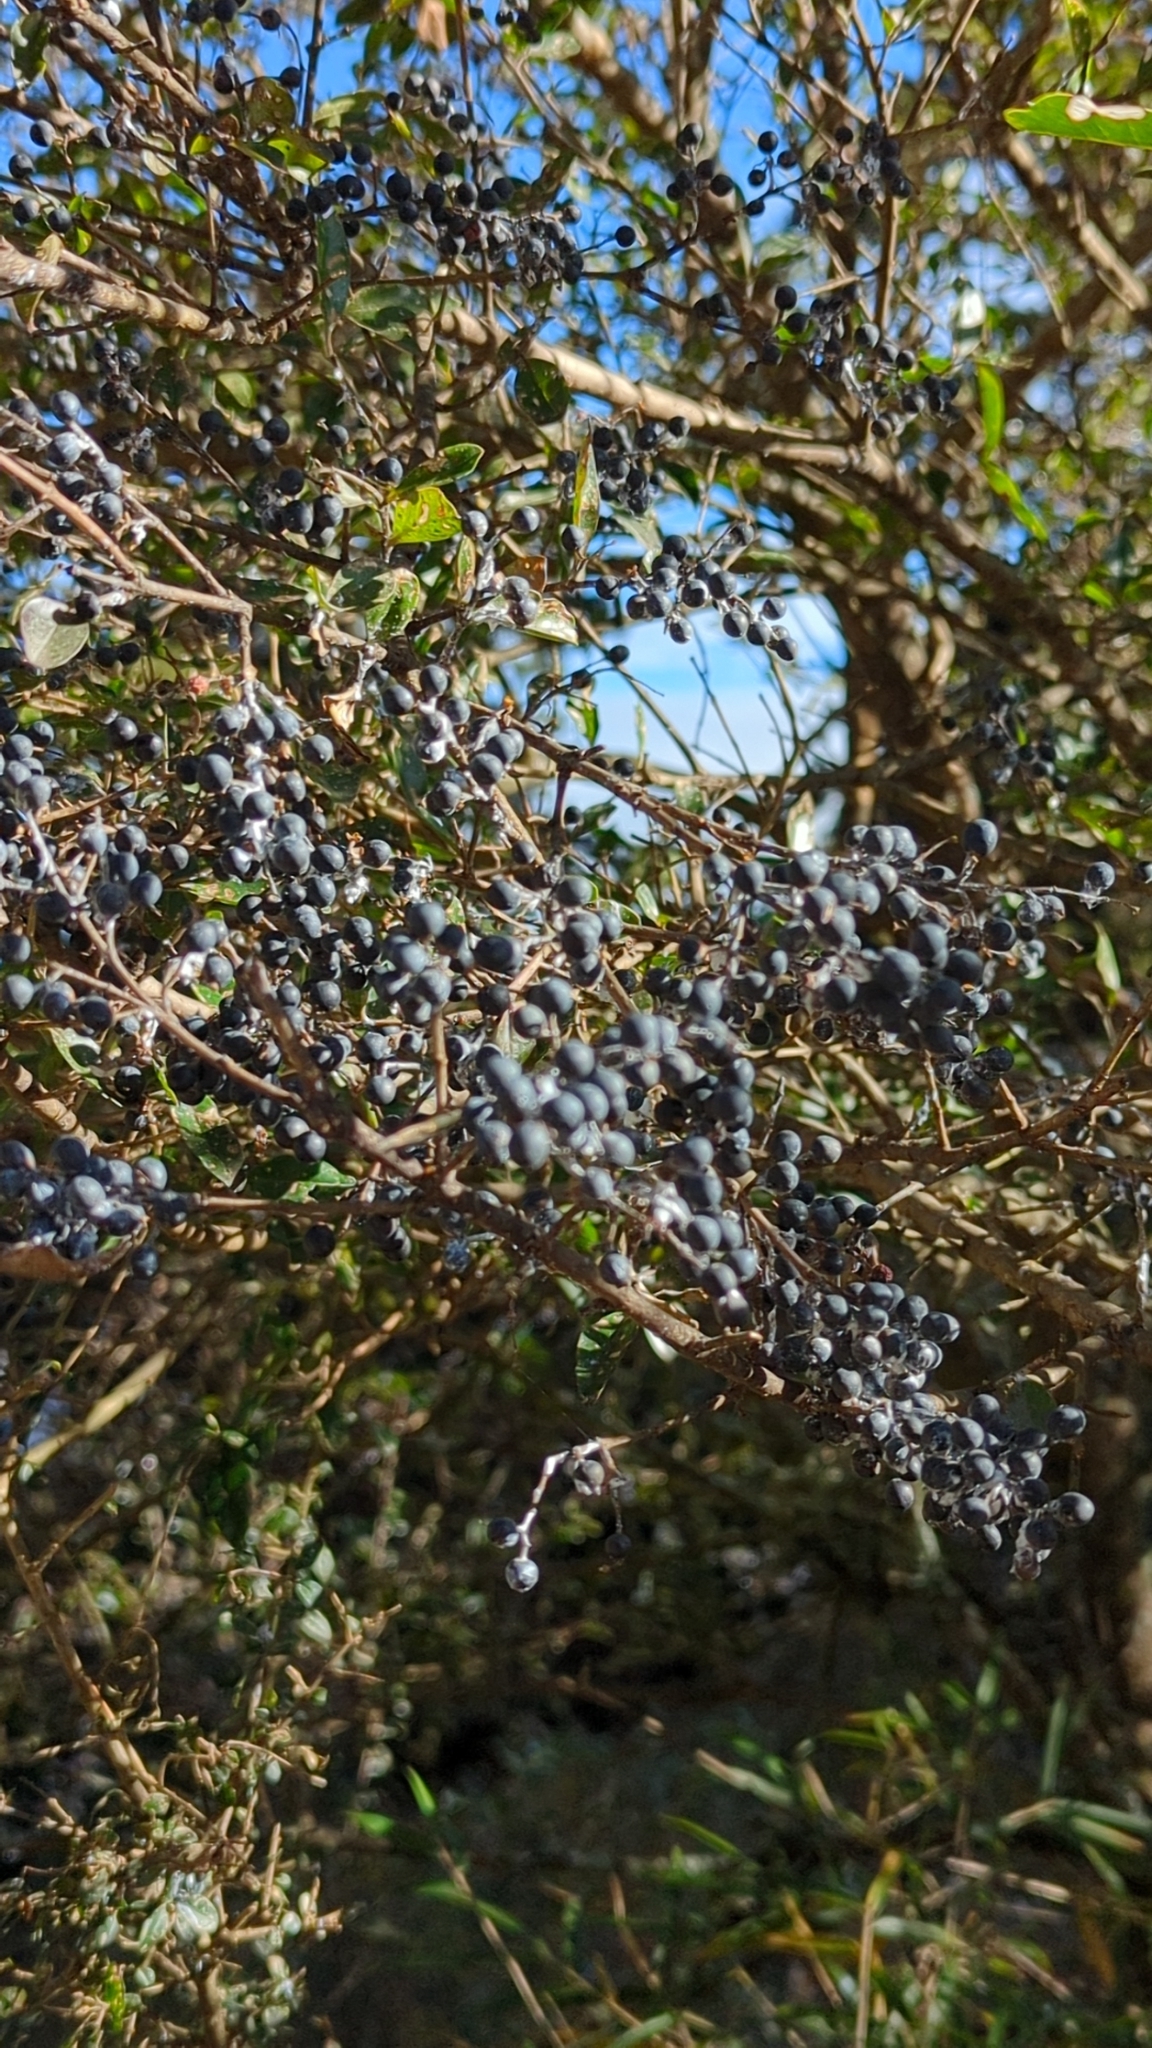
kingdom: Plantae
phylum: Tracheophyta
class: Magnoliopsida
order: Lamiales
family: Oleaceae
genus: Ligustrum
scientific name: Ligustrum sinense
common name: Chinese privet
